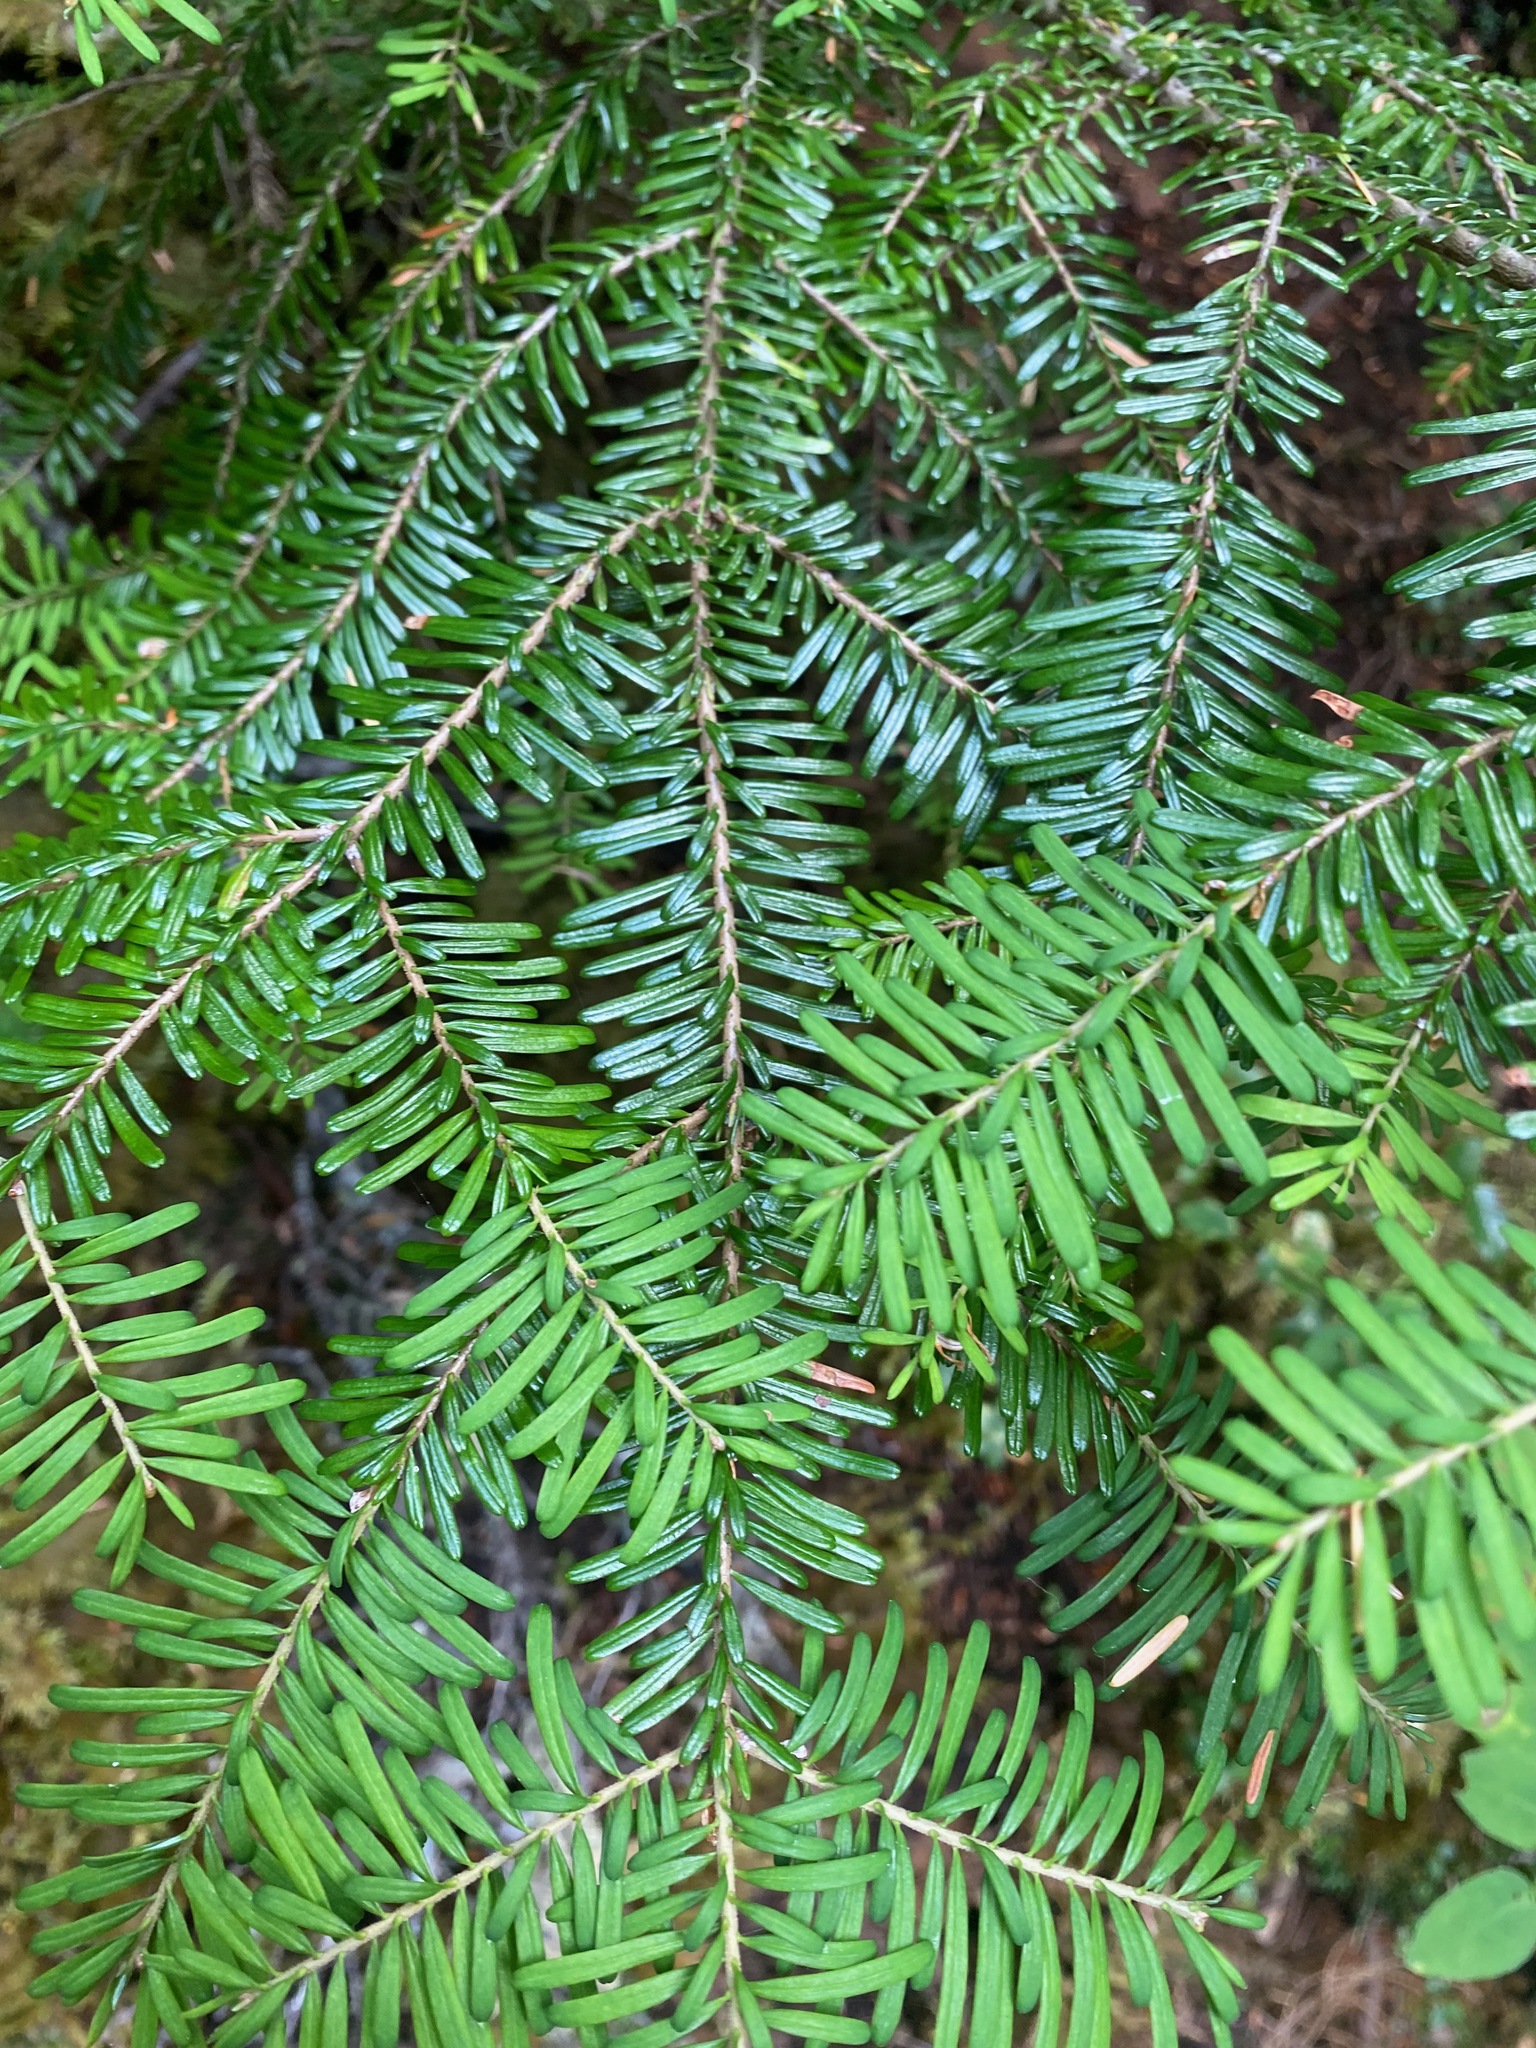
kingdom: Plantae
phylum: Tracheophyta
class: Pinopsida
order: Pinales
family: Pinaceae
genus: Abies
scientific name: Abies amabilis
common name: Pacific silver fir
